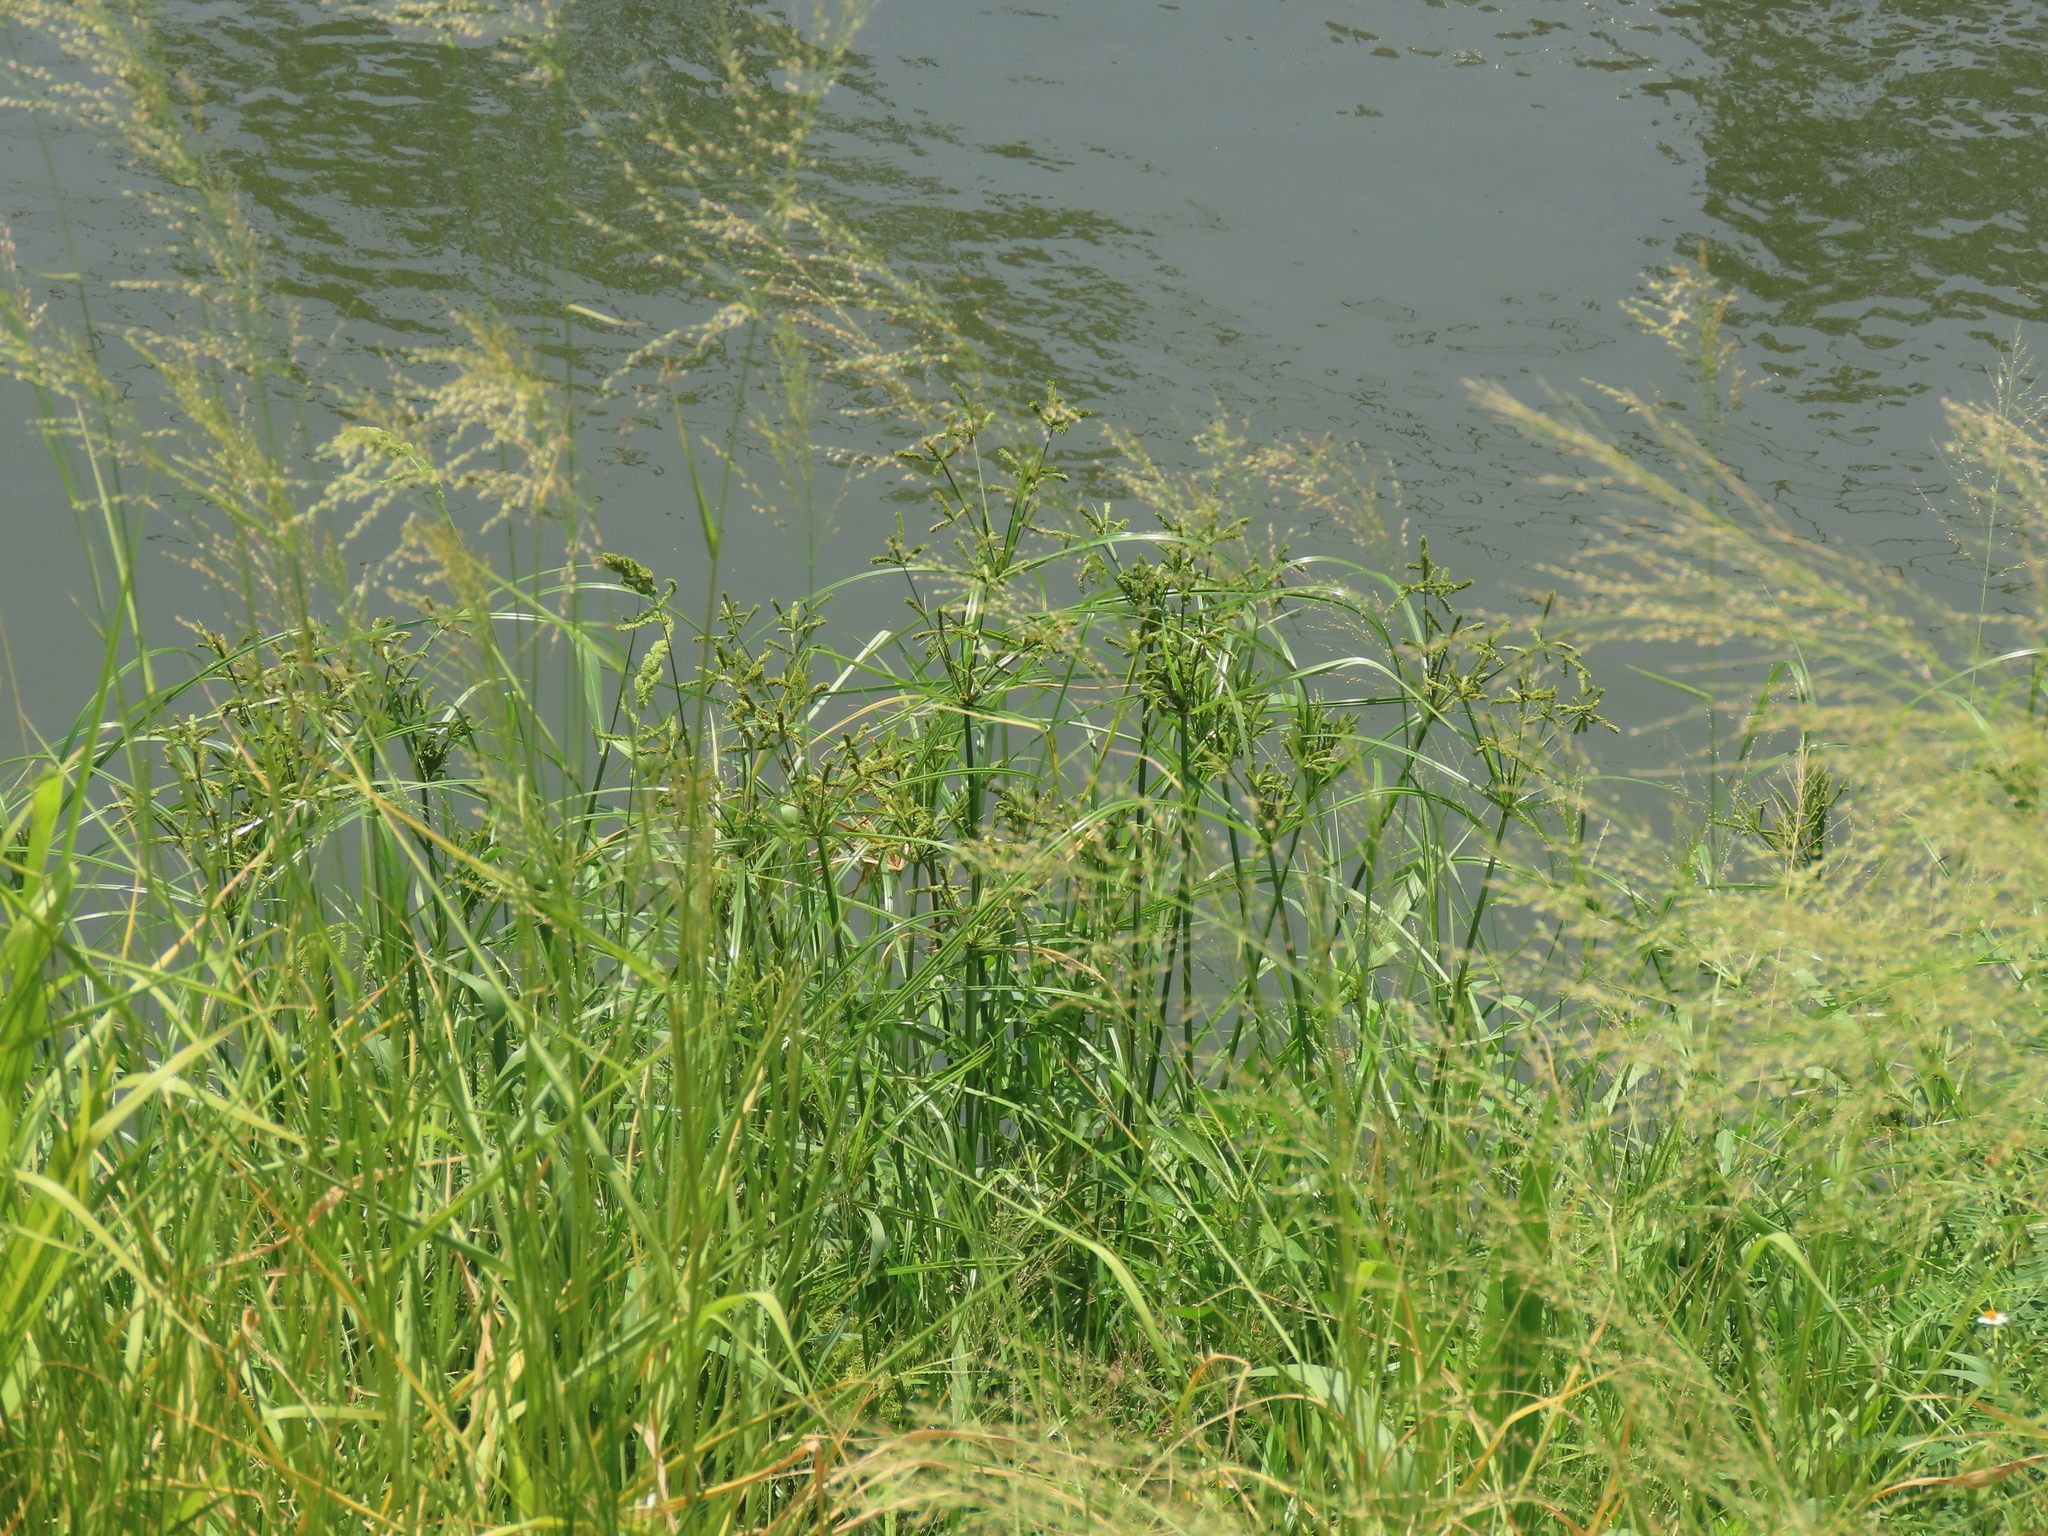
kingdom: Plantae
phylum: Tracheophyta
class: Liliopsida
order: Poales
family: Cyperaceae
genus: Cyperus
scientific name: Cyperus imbricatus
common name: Shingle flatsedge
